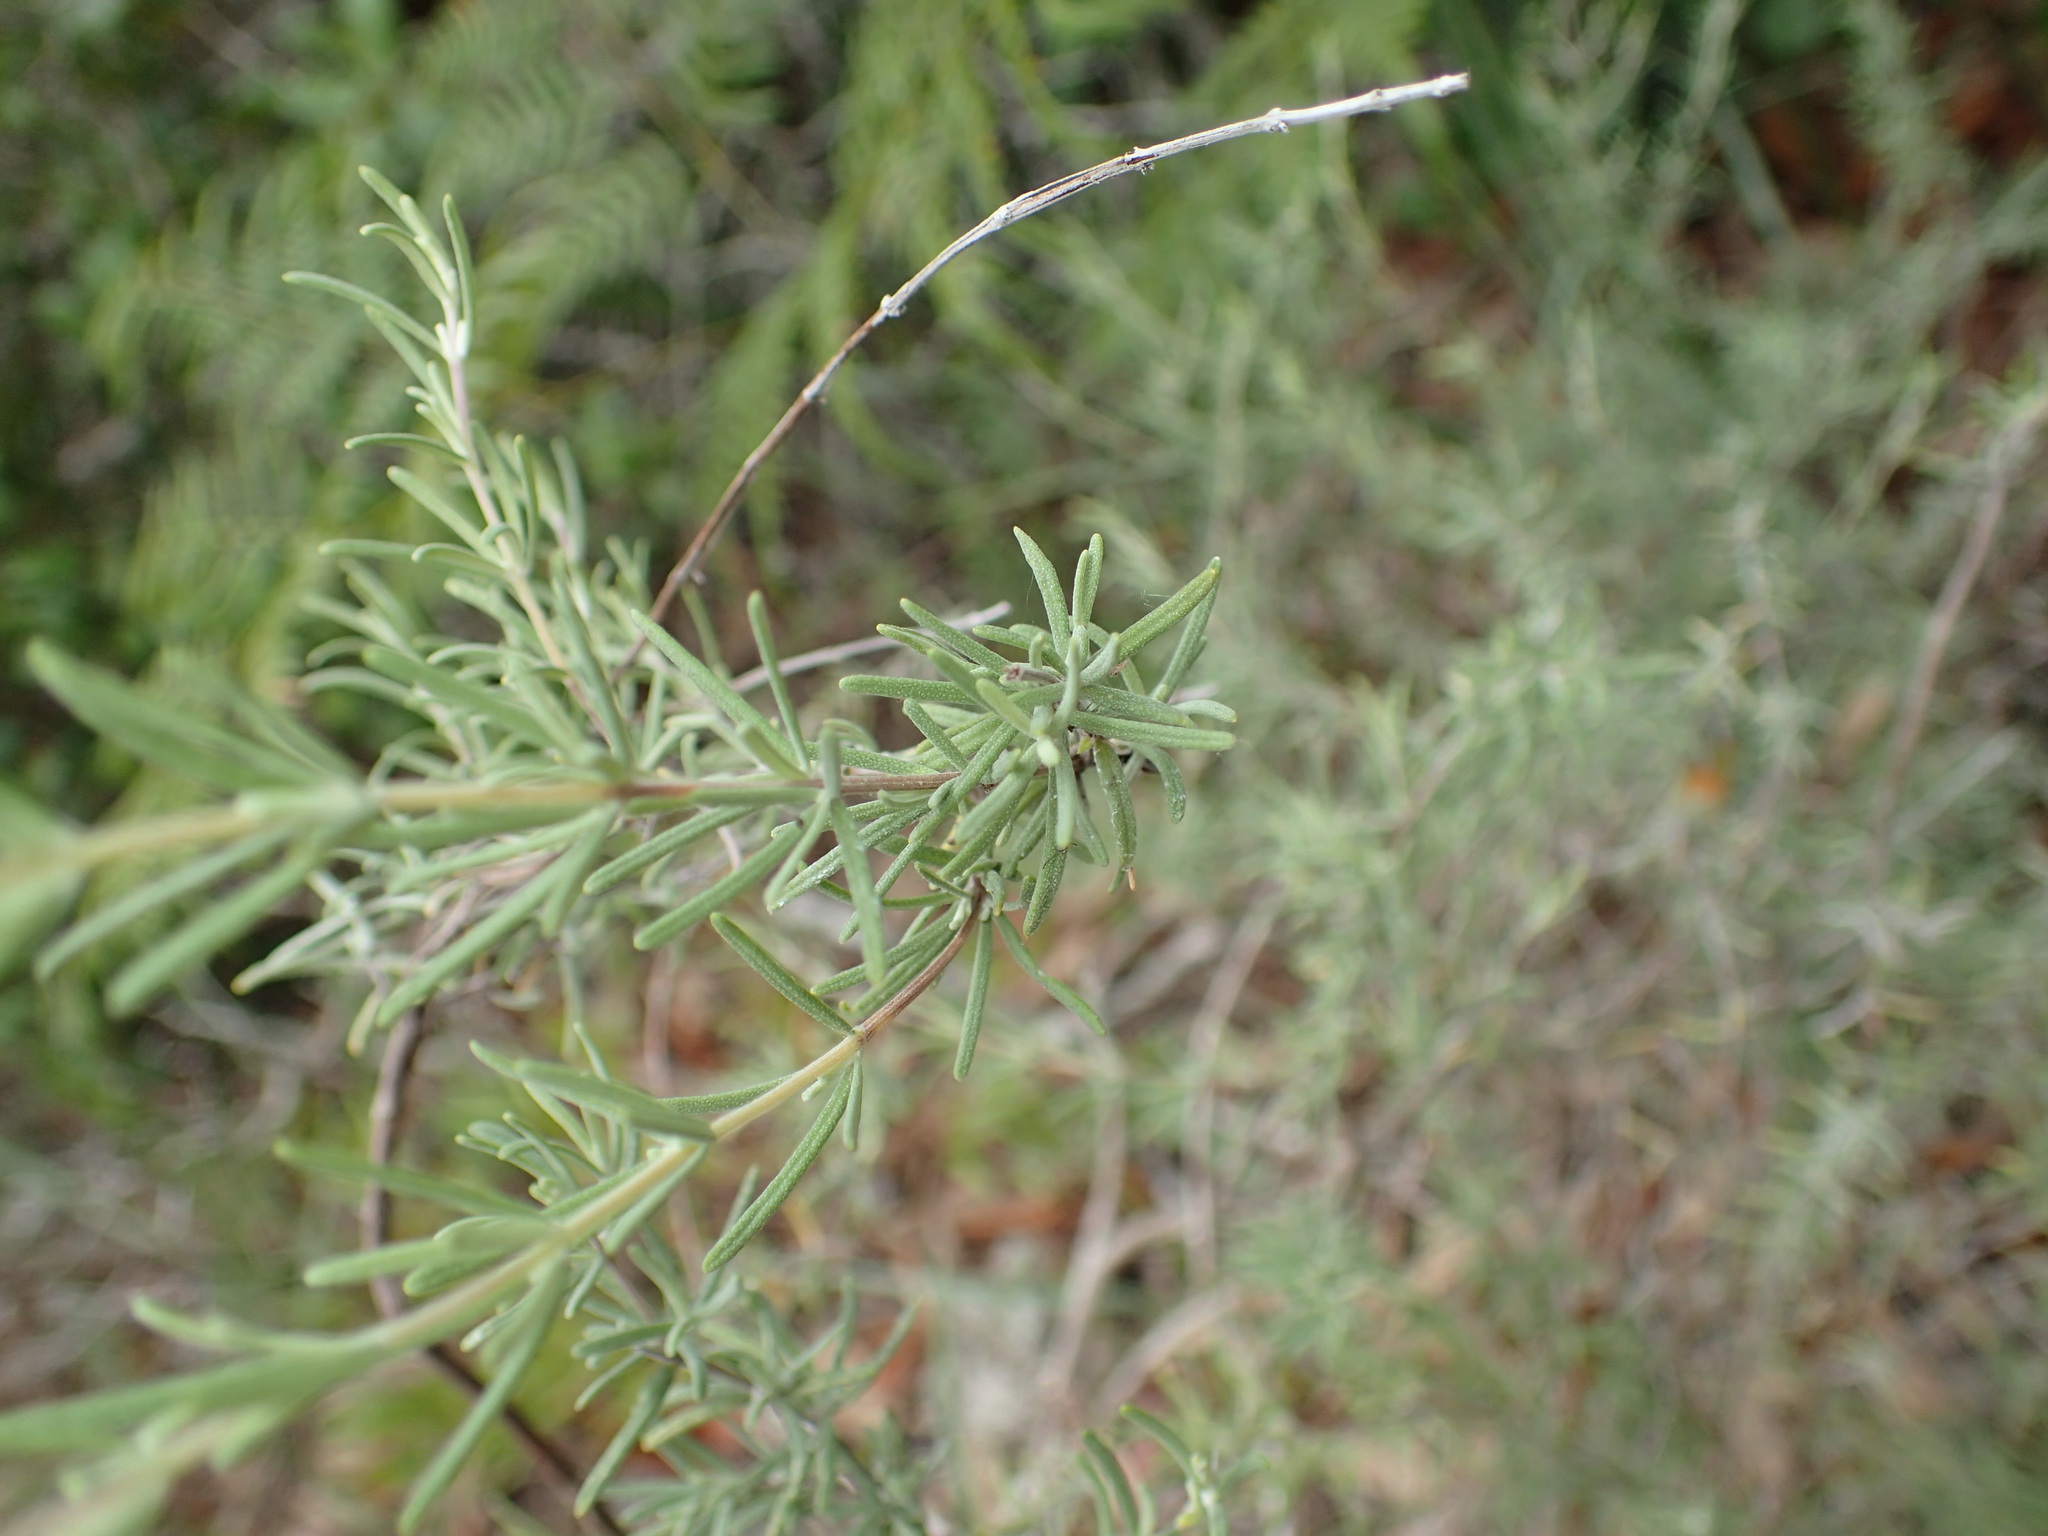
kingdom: Plantae
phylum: Tracheophyta
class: Magnoliopsida
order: Lamiales
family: Lamiaceae
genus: Conradina
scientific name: Conradina canescens
